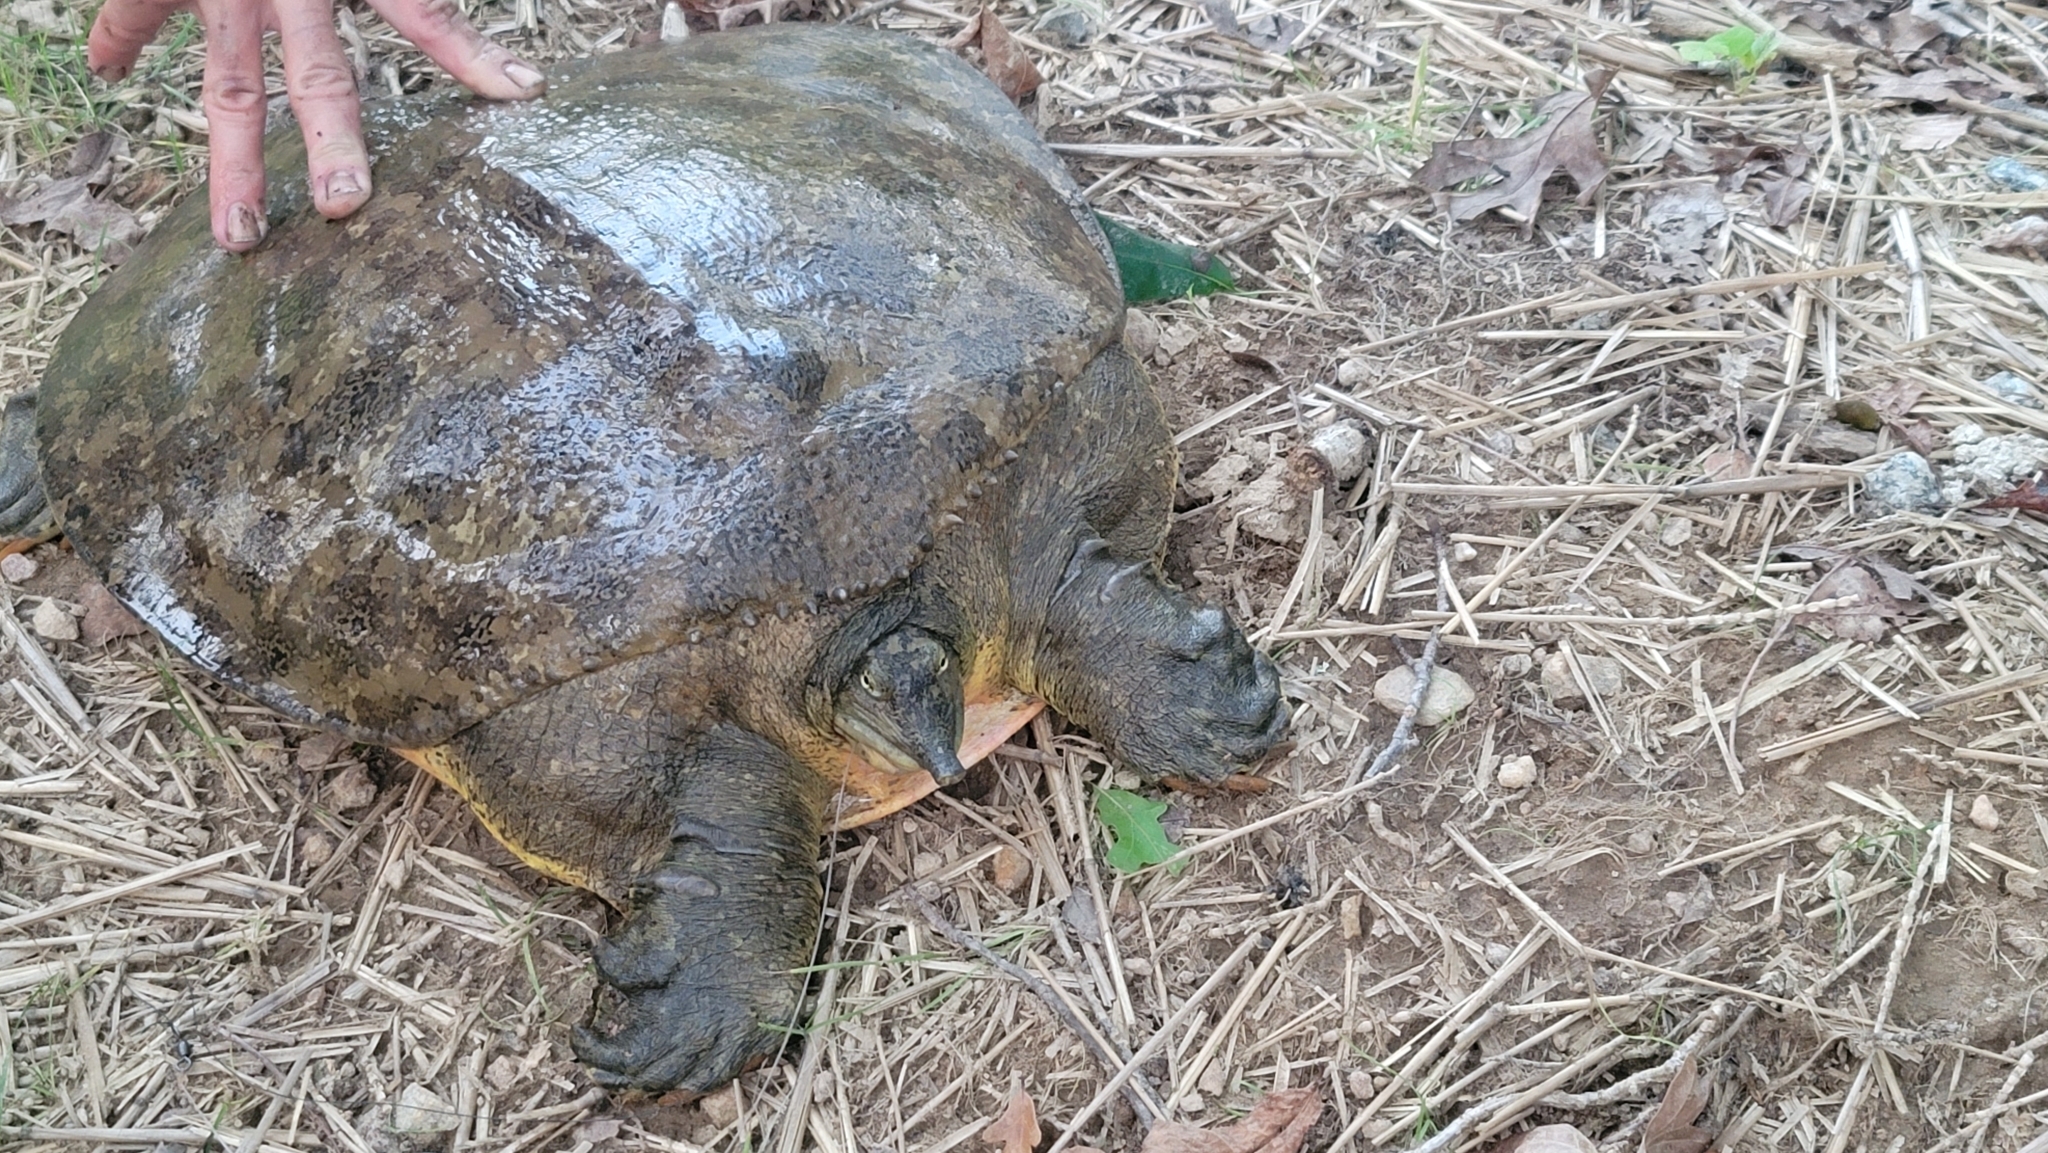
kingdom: Animalia
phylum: Chordata
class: Testudines
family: Trionychidae
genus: Apalone
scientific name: Apalone spinifera
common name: Spiny softshell turtle
